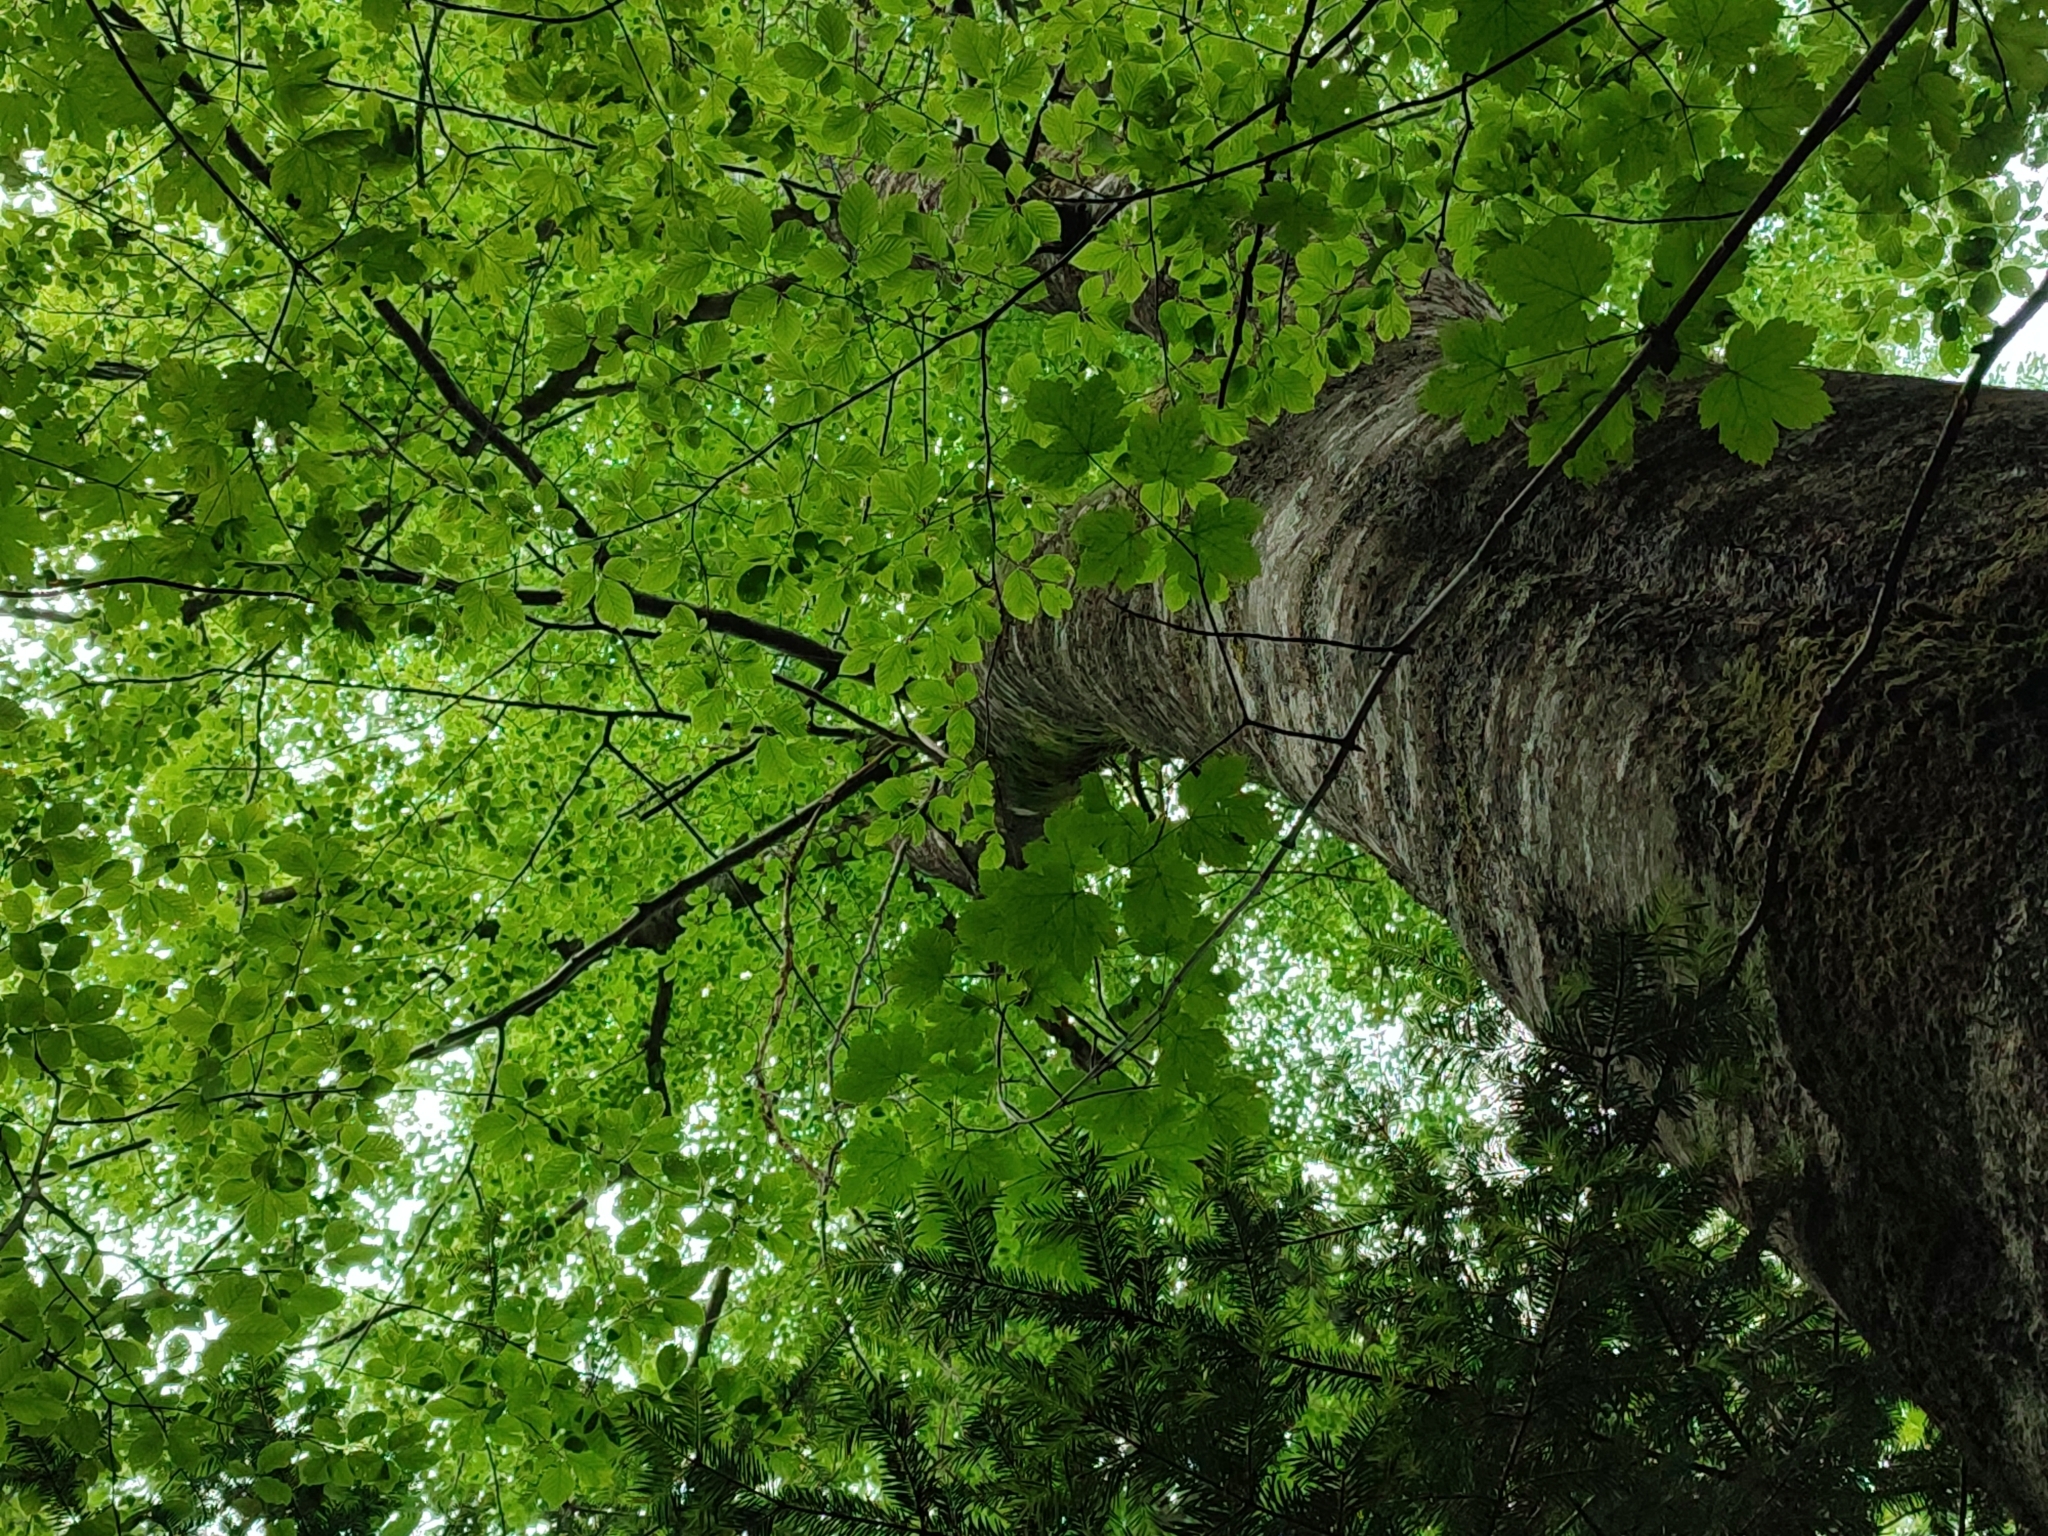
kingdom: Plantae
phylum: Tracheophyta
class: Magnoliopsida
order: Fagales
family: Fagaceae
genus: Fagus
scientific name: Fagus sylvatica
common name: Beech
